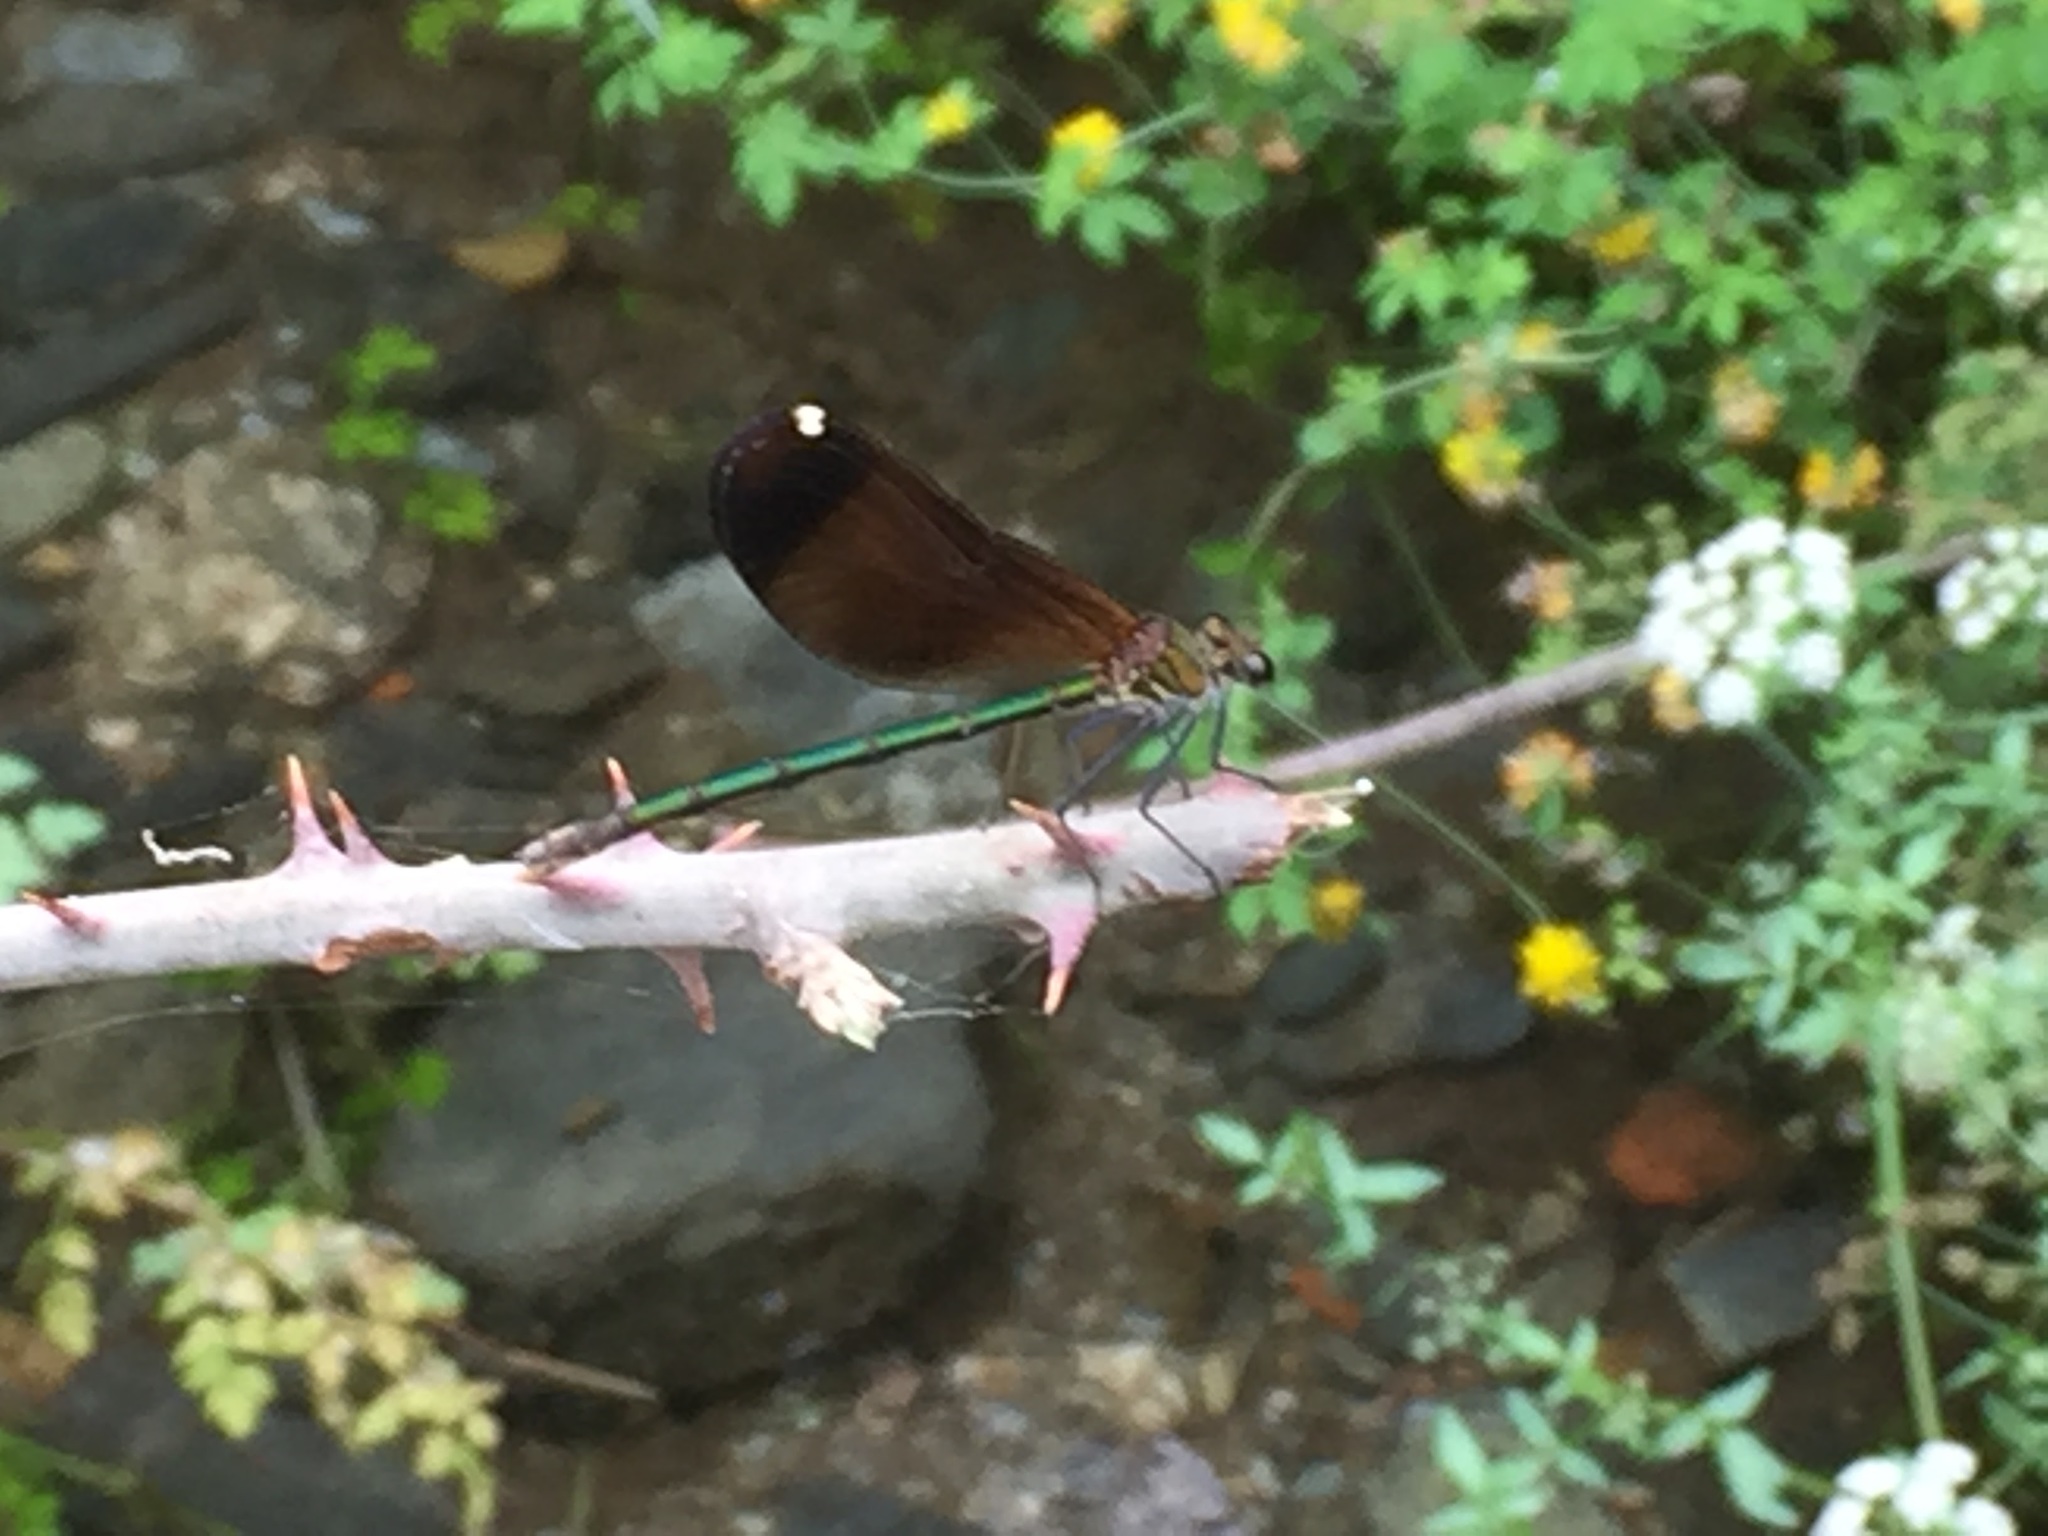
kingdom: Animalia
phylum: Arthropoda
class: Insecta
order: Odonata
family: Calopterygidae
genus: Calopteryx
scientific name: Calopteryx haemorrhoidalis
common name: Copper demoiselle
